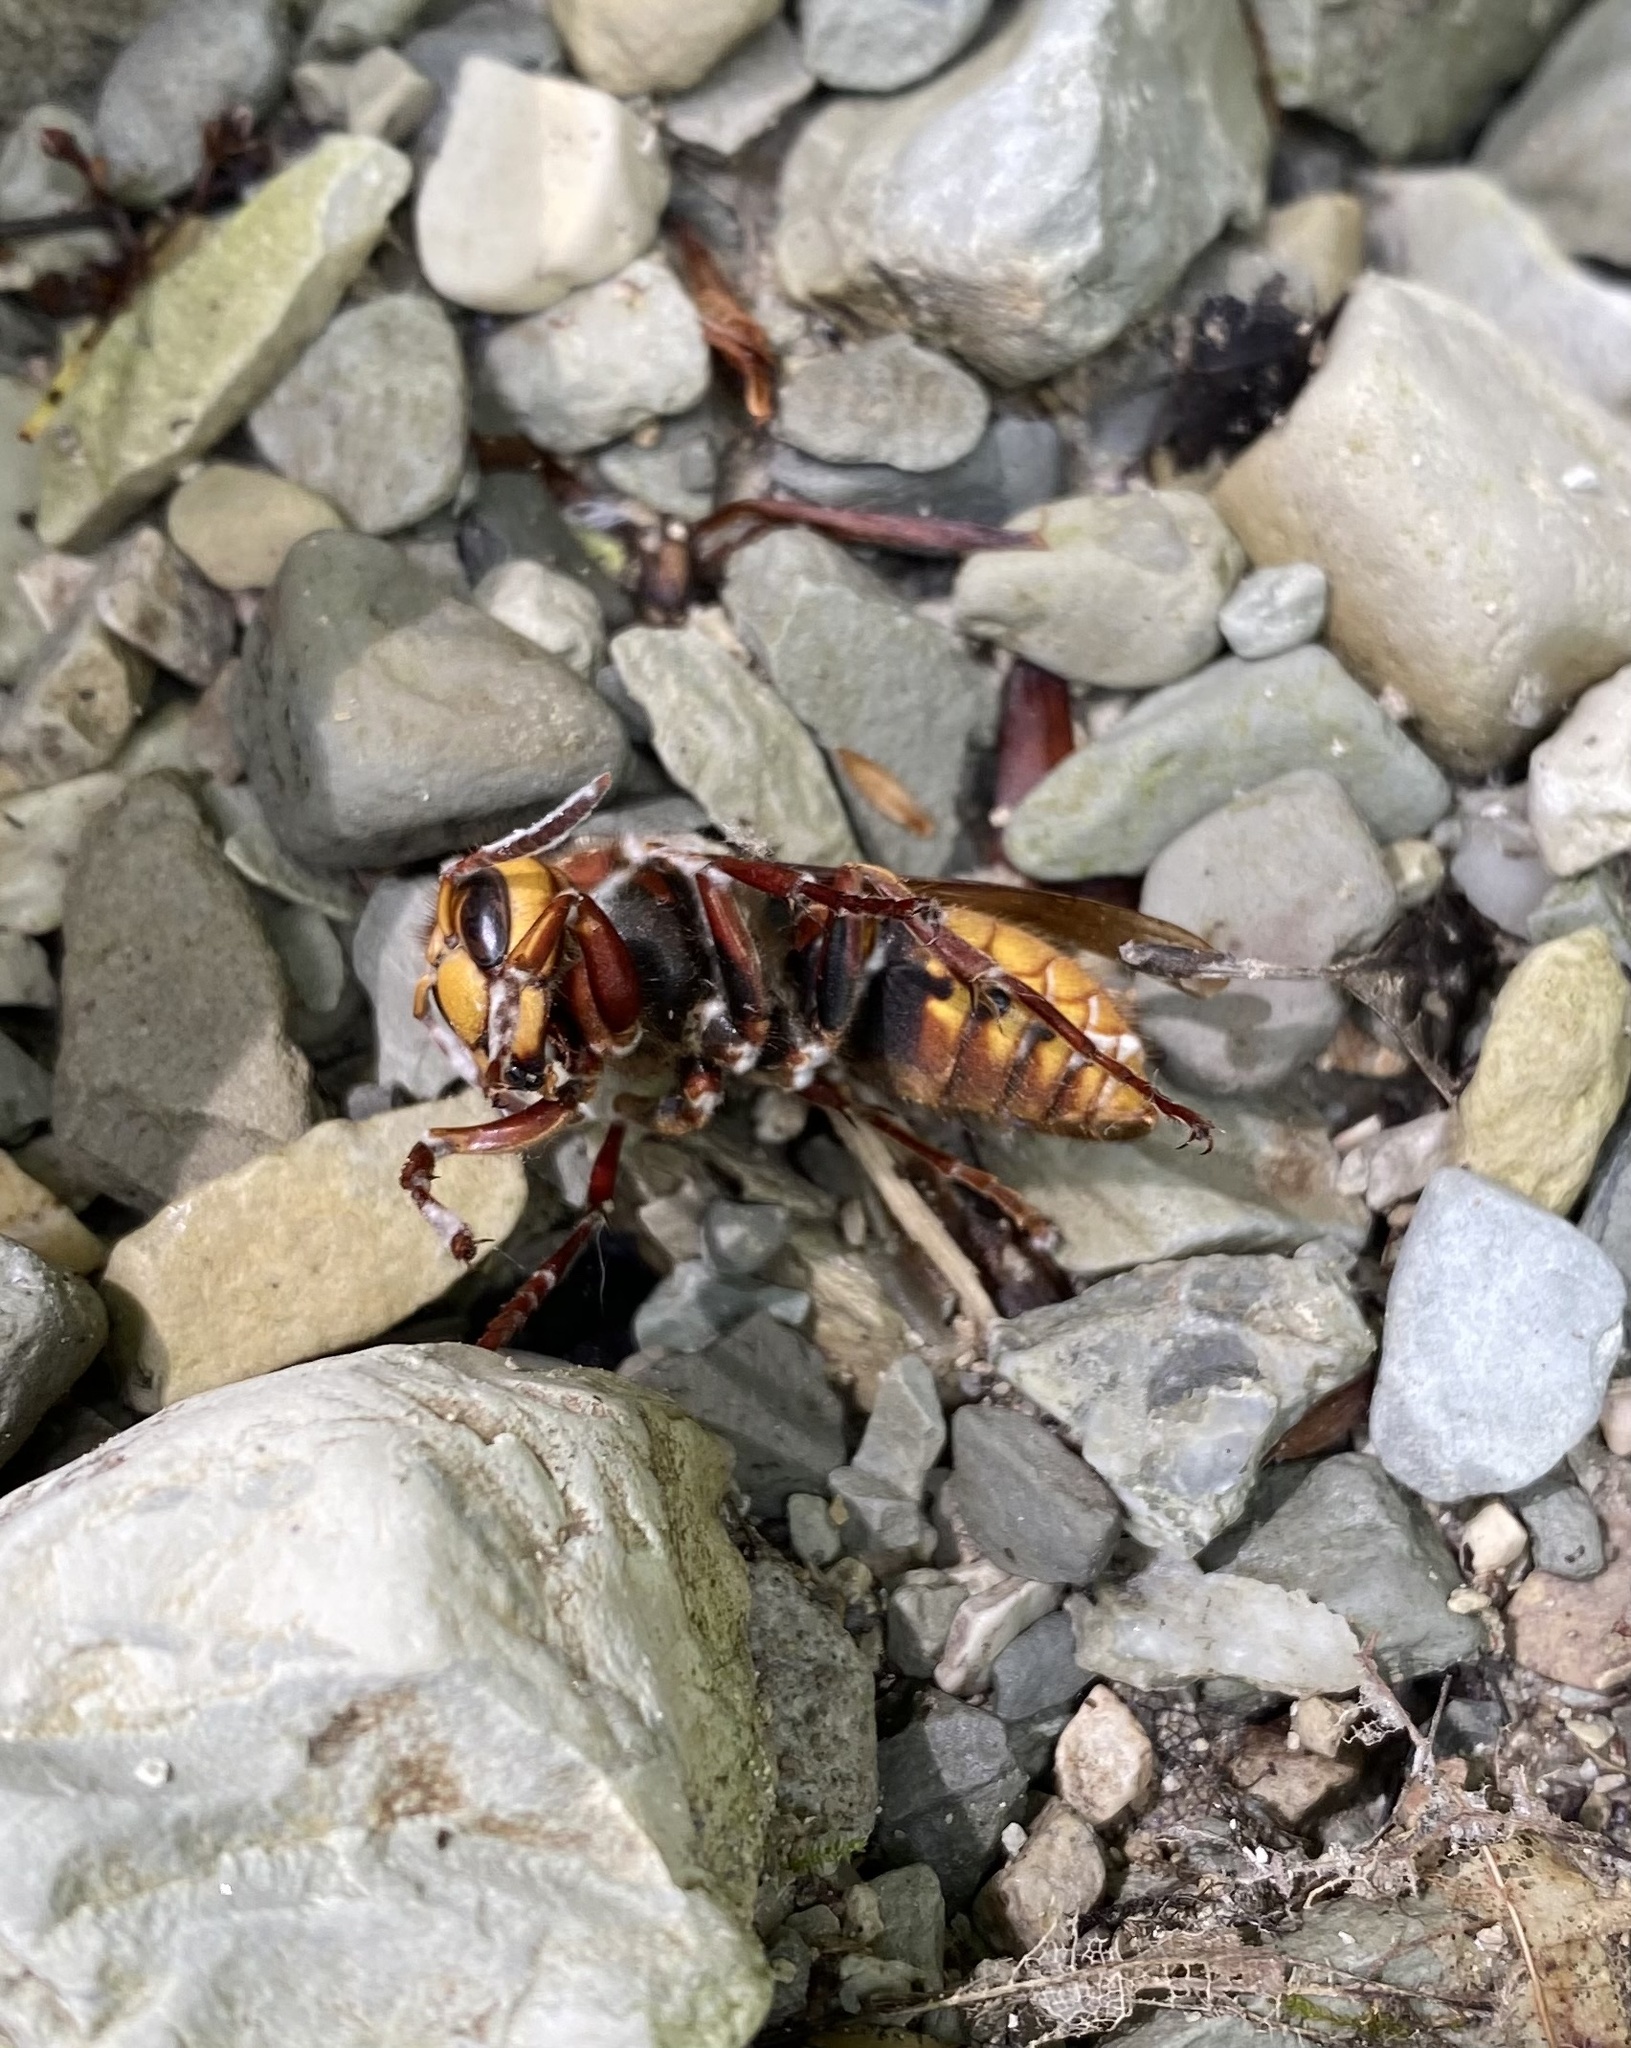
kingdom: Animalia
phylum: Arthropoda
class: Insecta
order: Hymenoptera
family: Vespidae
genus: Vespa
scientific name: Vespa crabro
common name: Hornet
